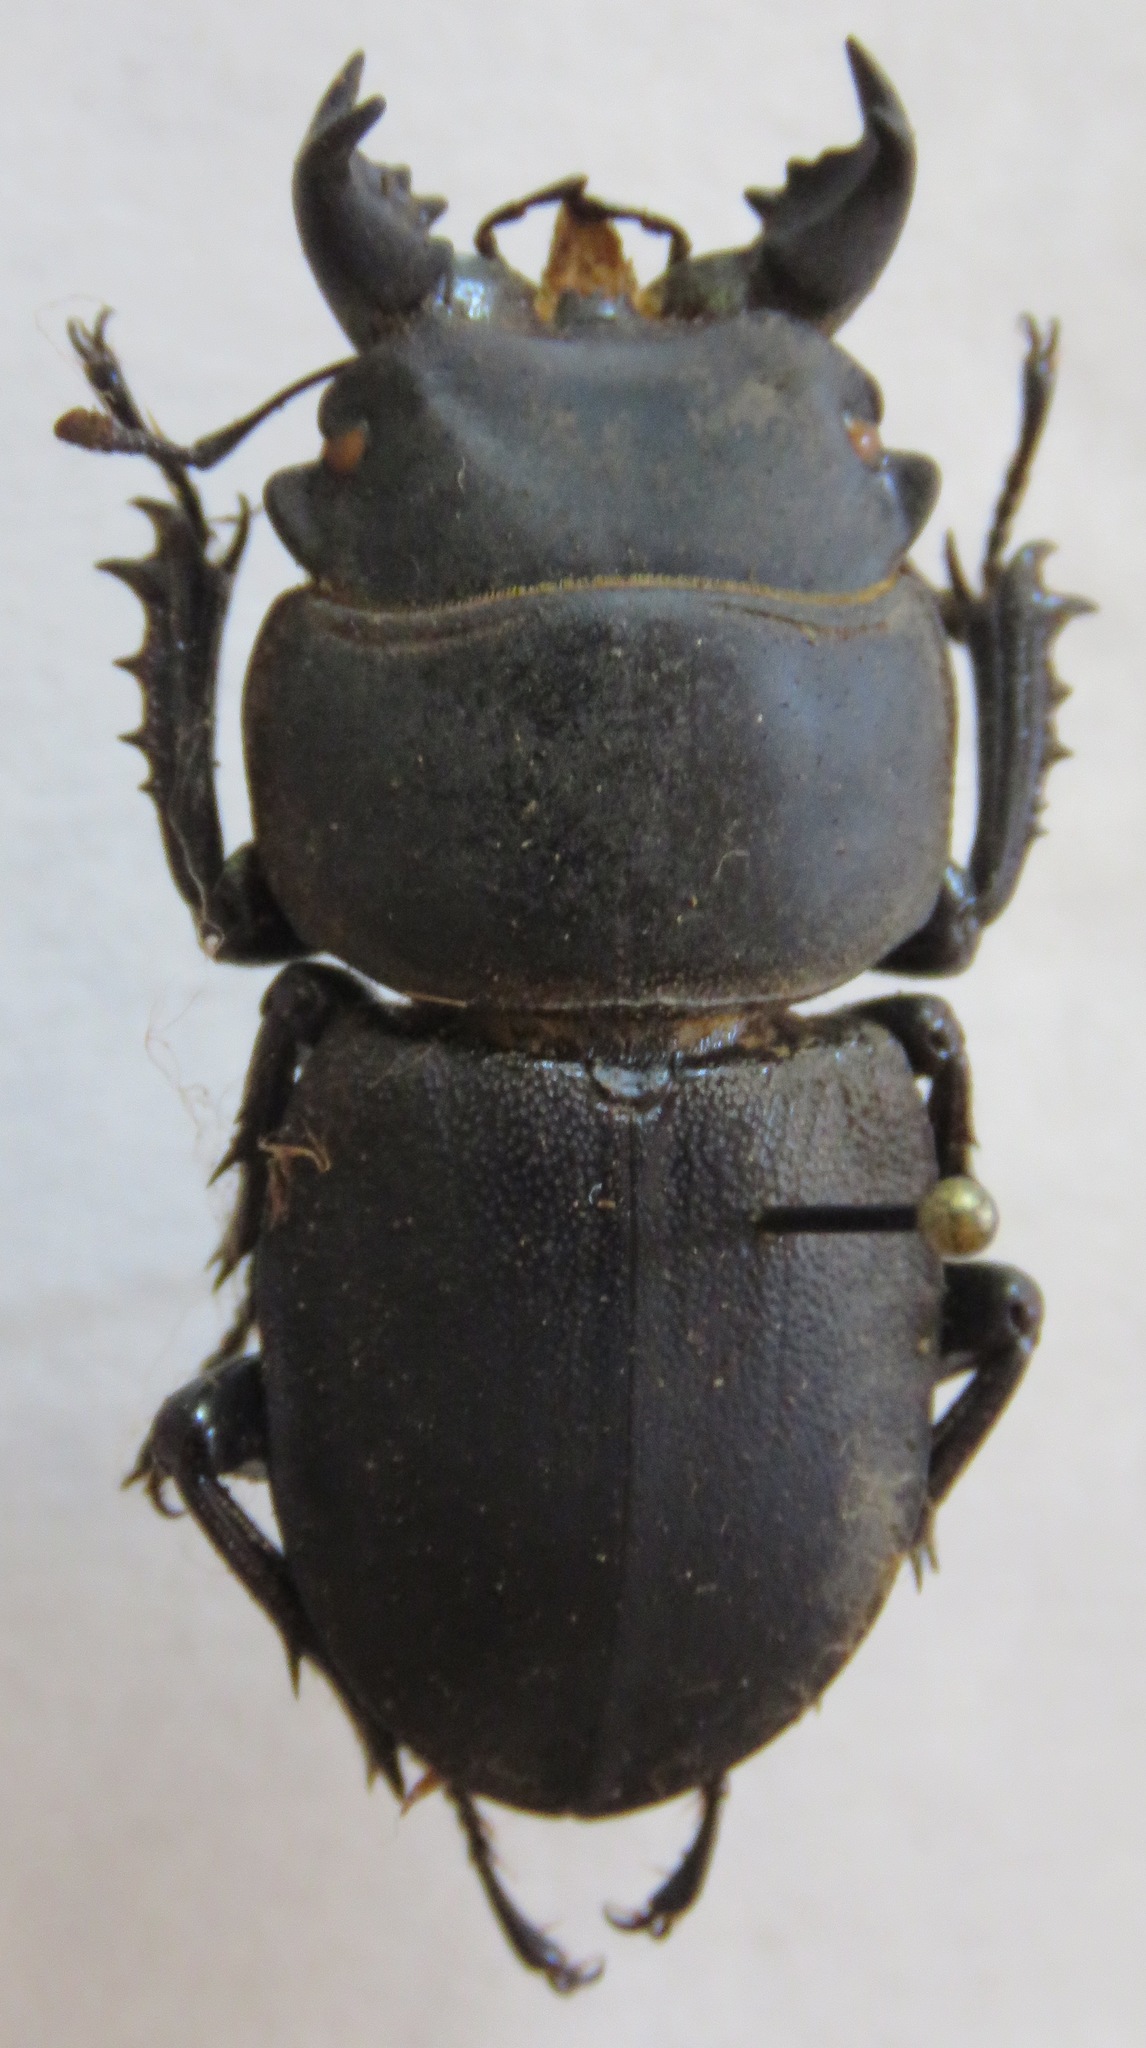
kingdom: Animalia
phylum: Arthropoda
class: Insecta
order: Coleoptera
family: Lucanidae
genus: Apterodorcus
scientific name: Apterodorcus bacchus
